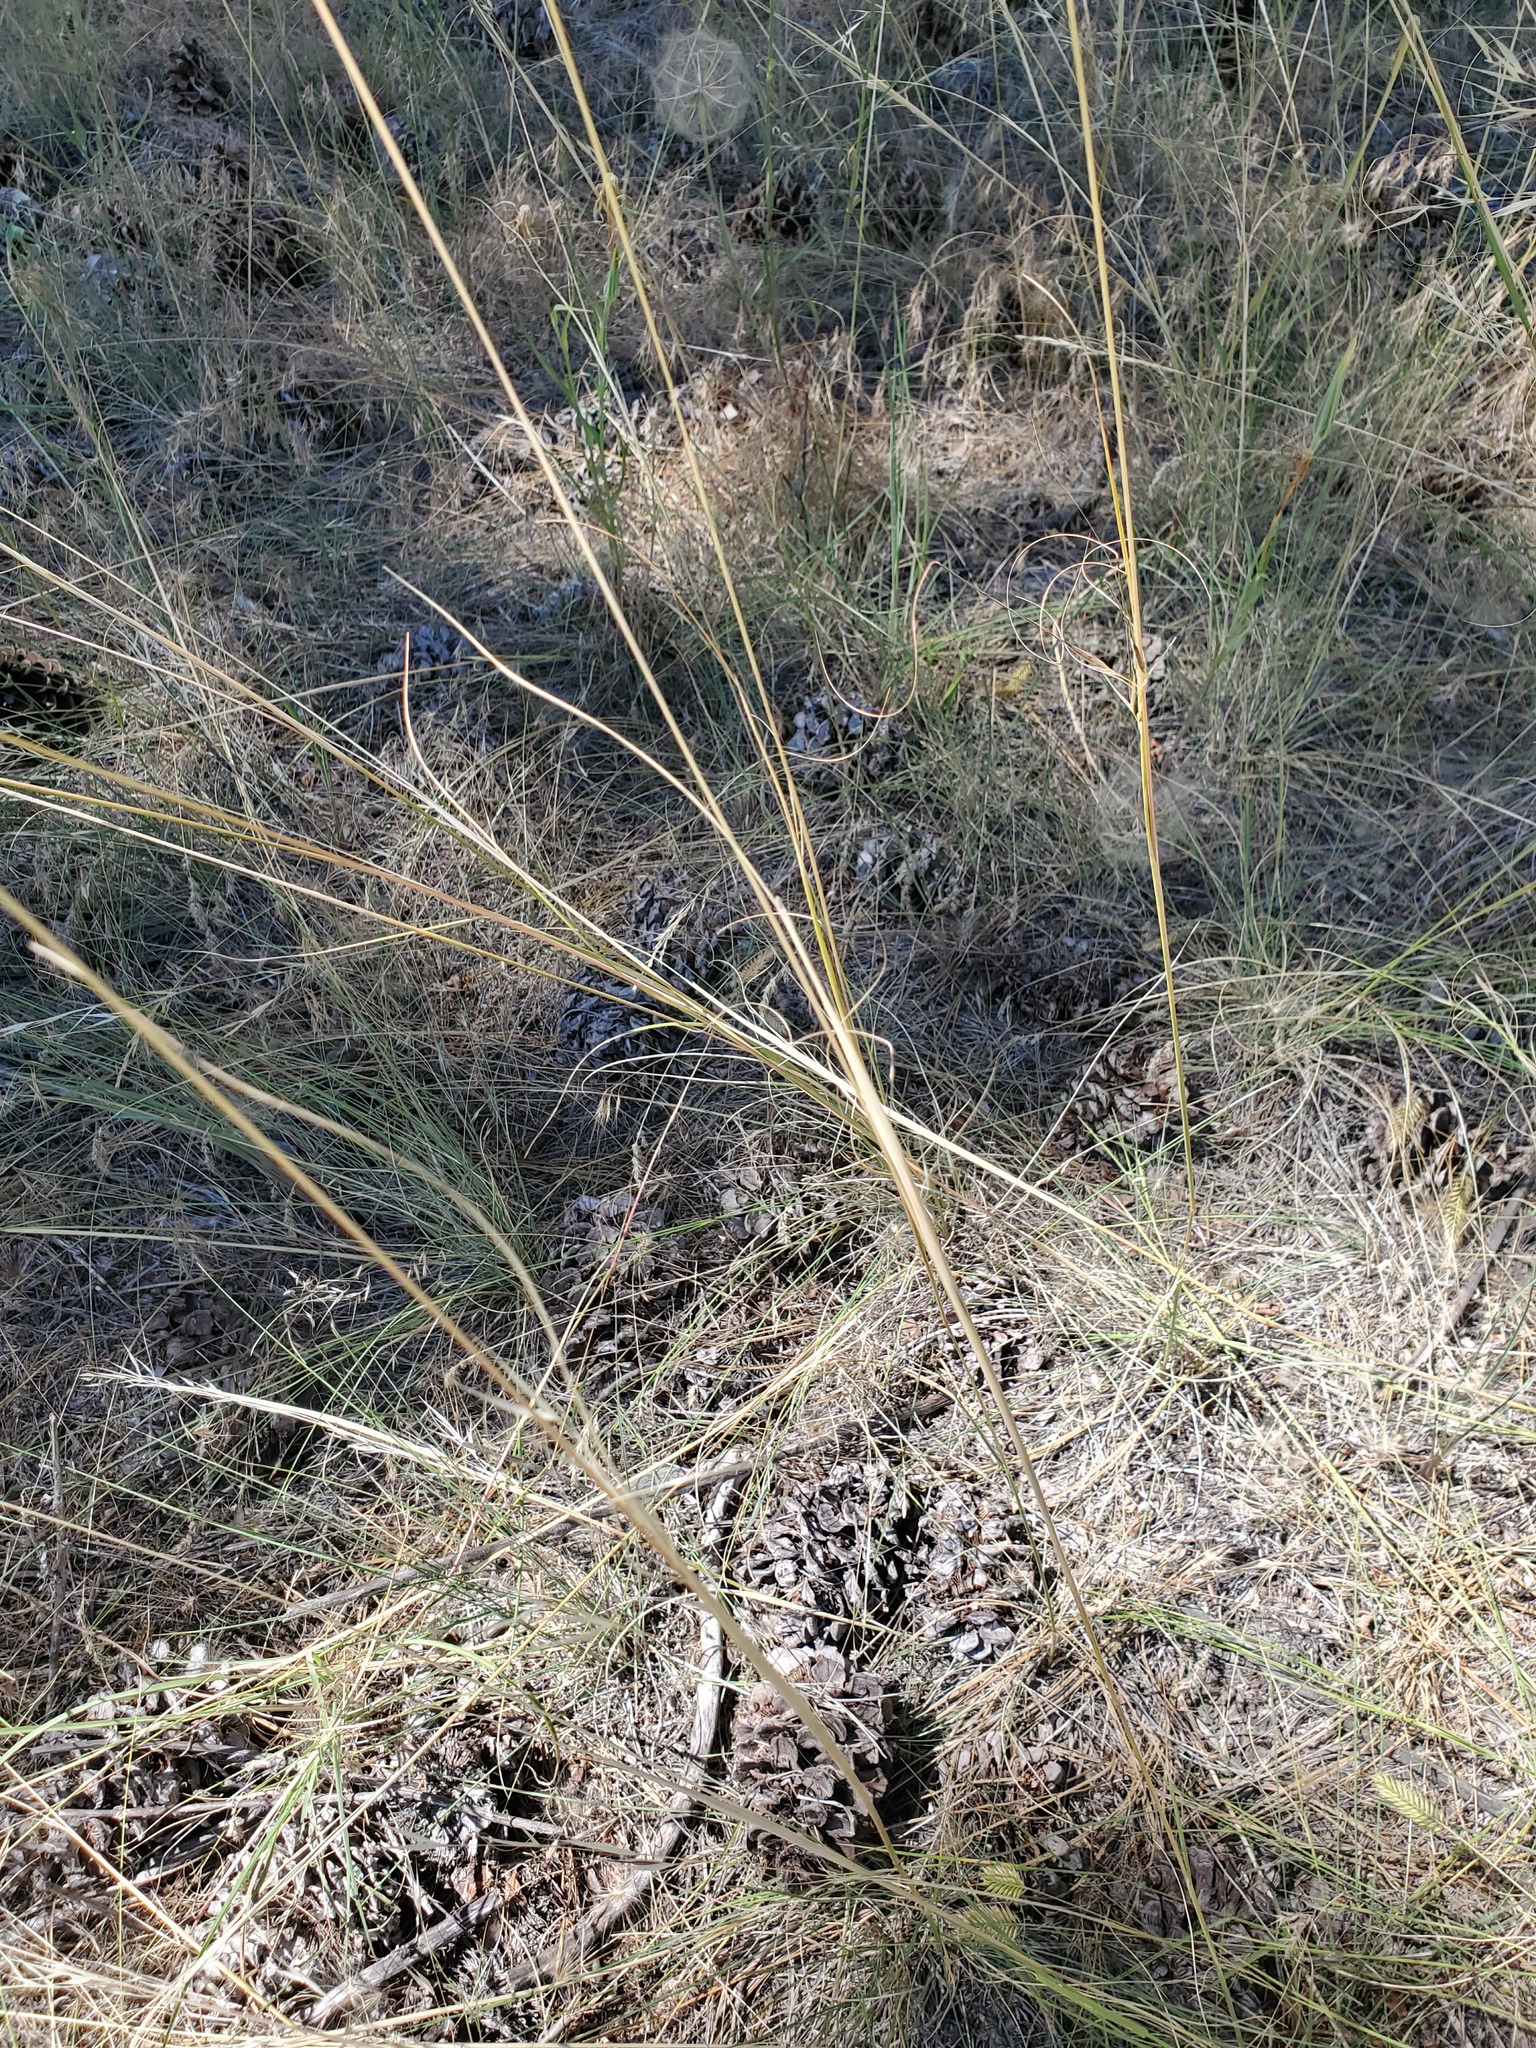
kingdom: Plantae
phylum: Tracheophyta
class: Liliopsida
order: Poales
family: Poaceae
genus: Hesperostipa
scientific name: Hesperostipa comata
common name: Needle-and-thread grass
